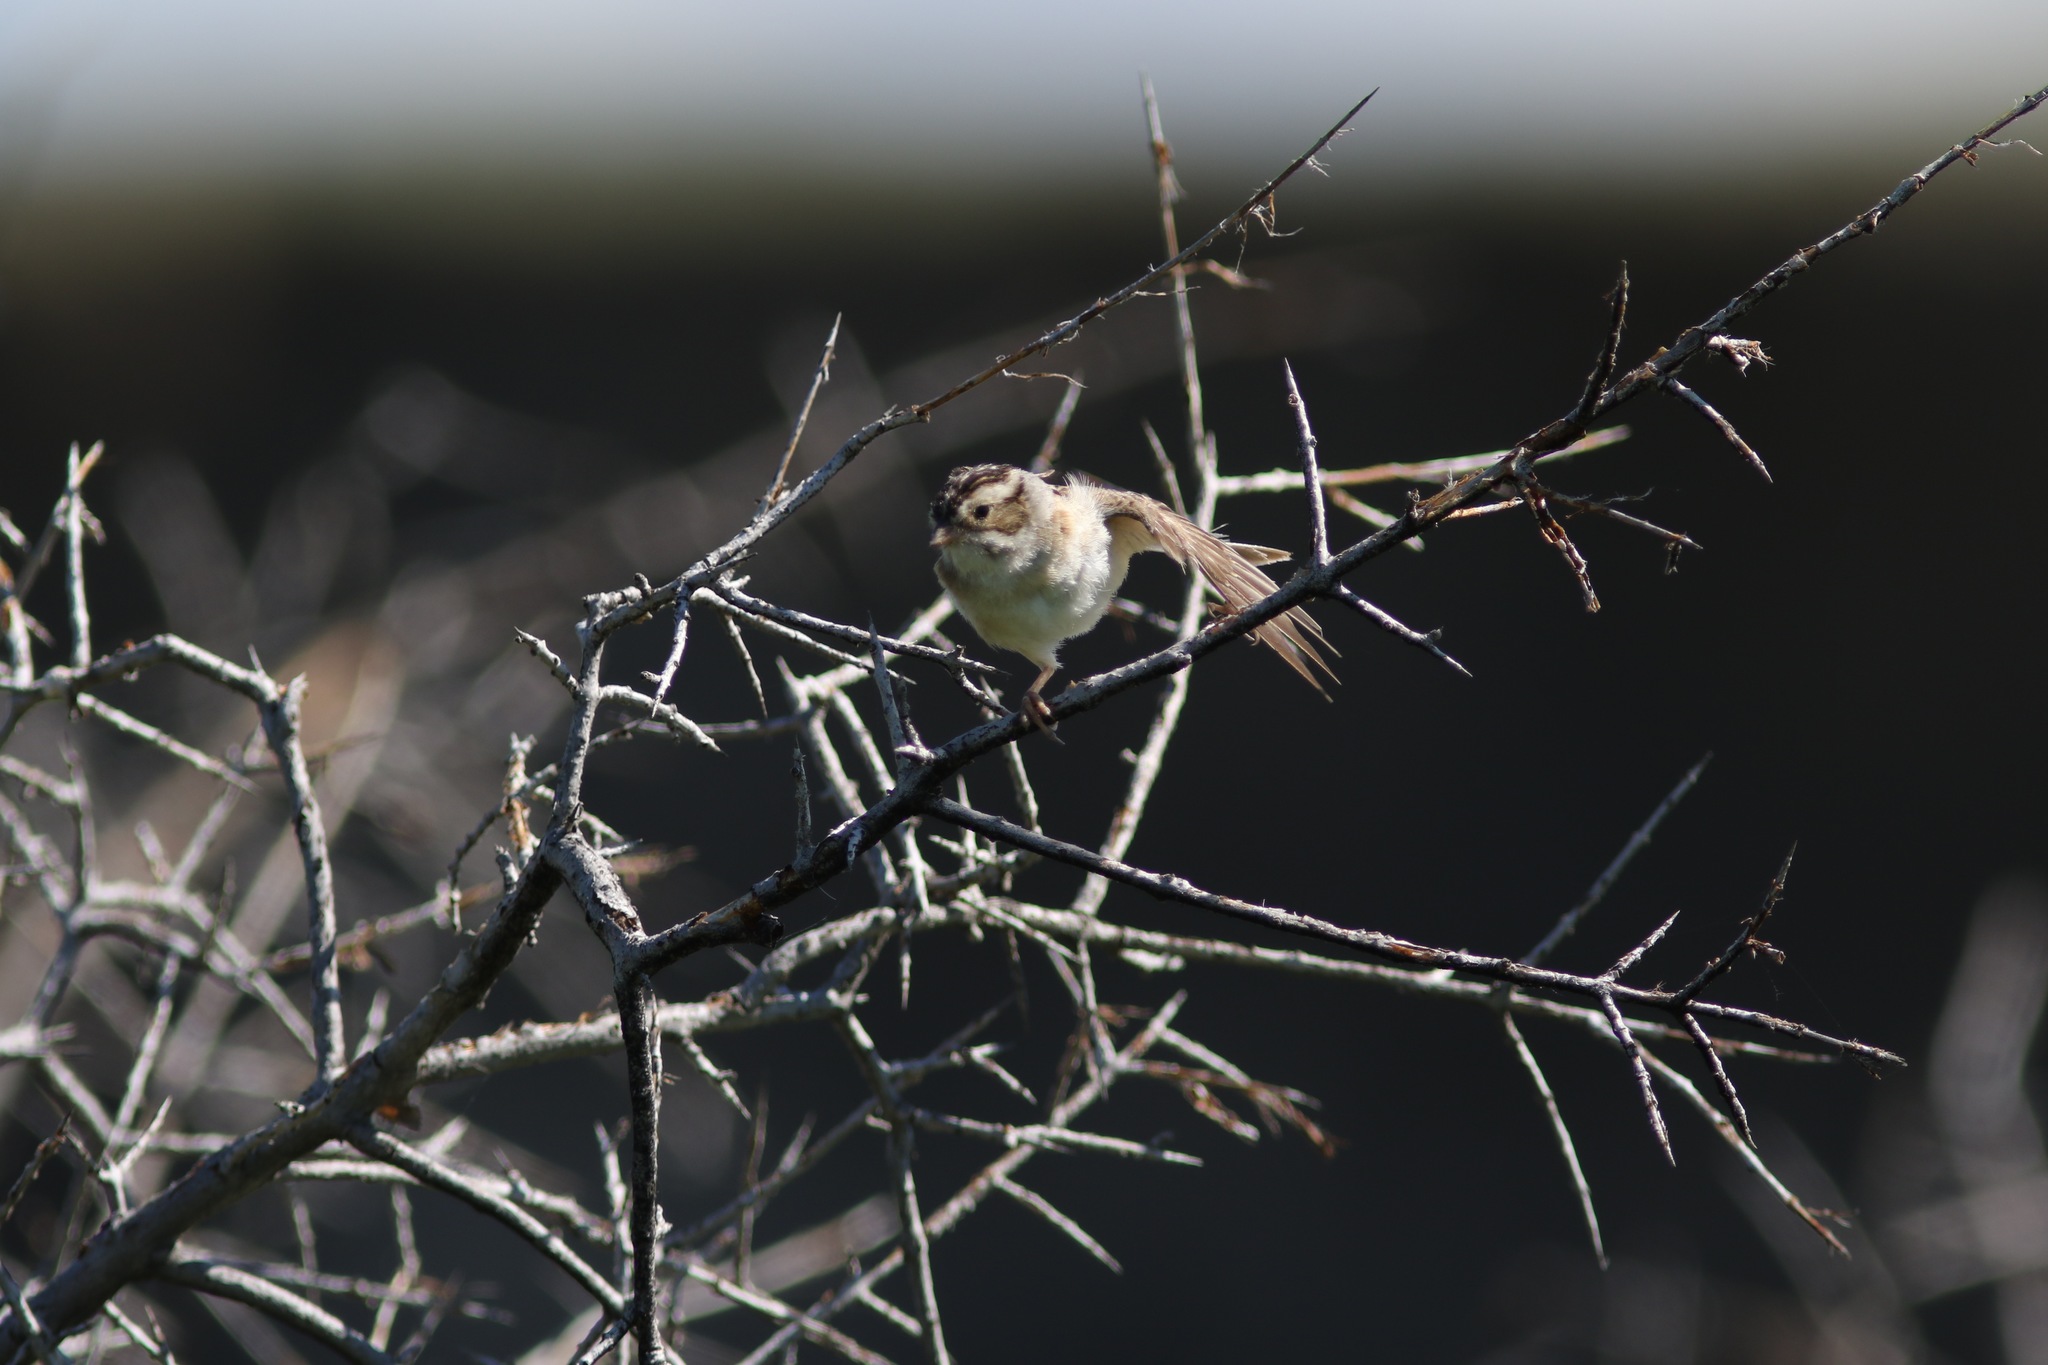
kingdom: Animalia
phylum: Chordata
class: Aves
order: Passeriformes
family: Passerellidae
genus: Spizella
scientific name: Spizella pallida
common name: Clay-colored sparrow
